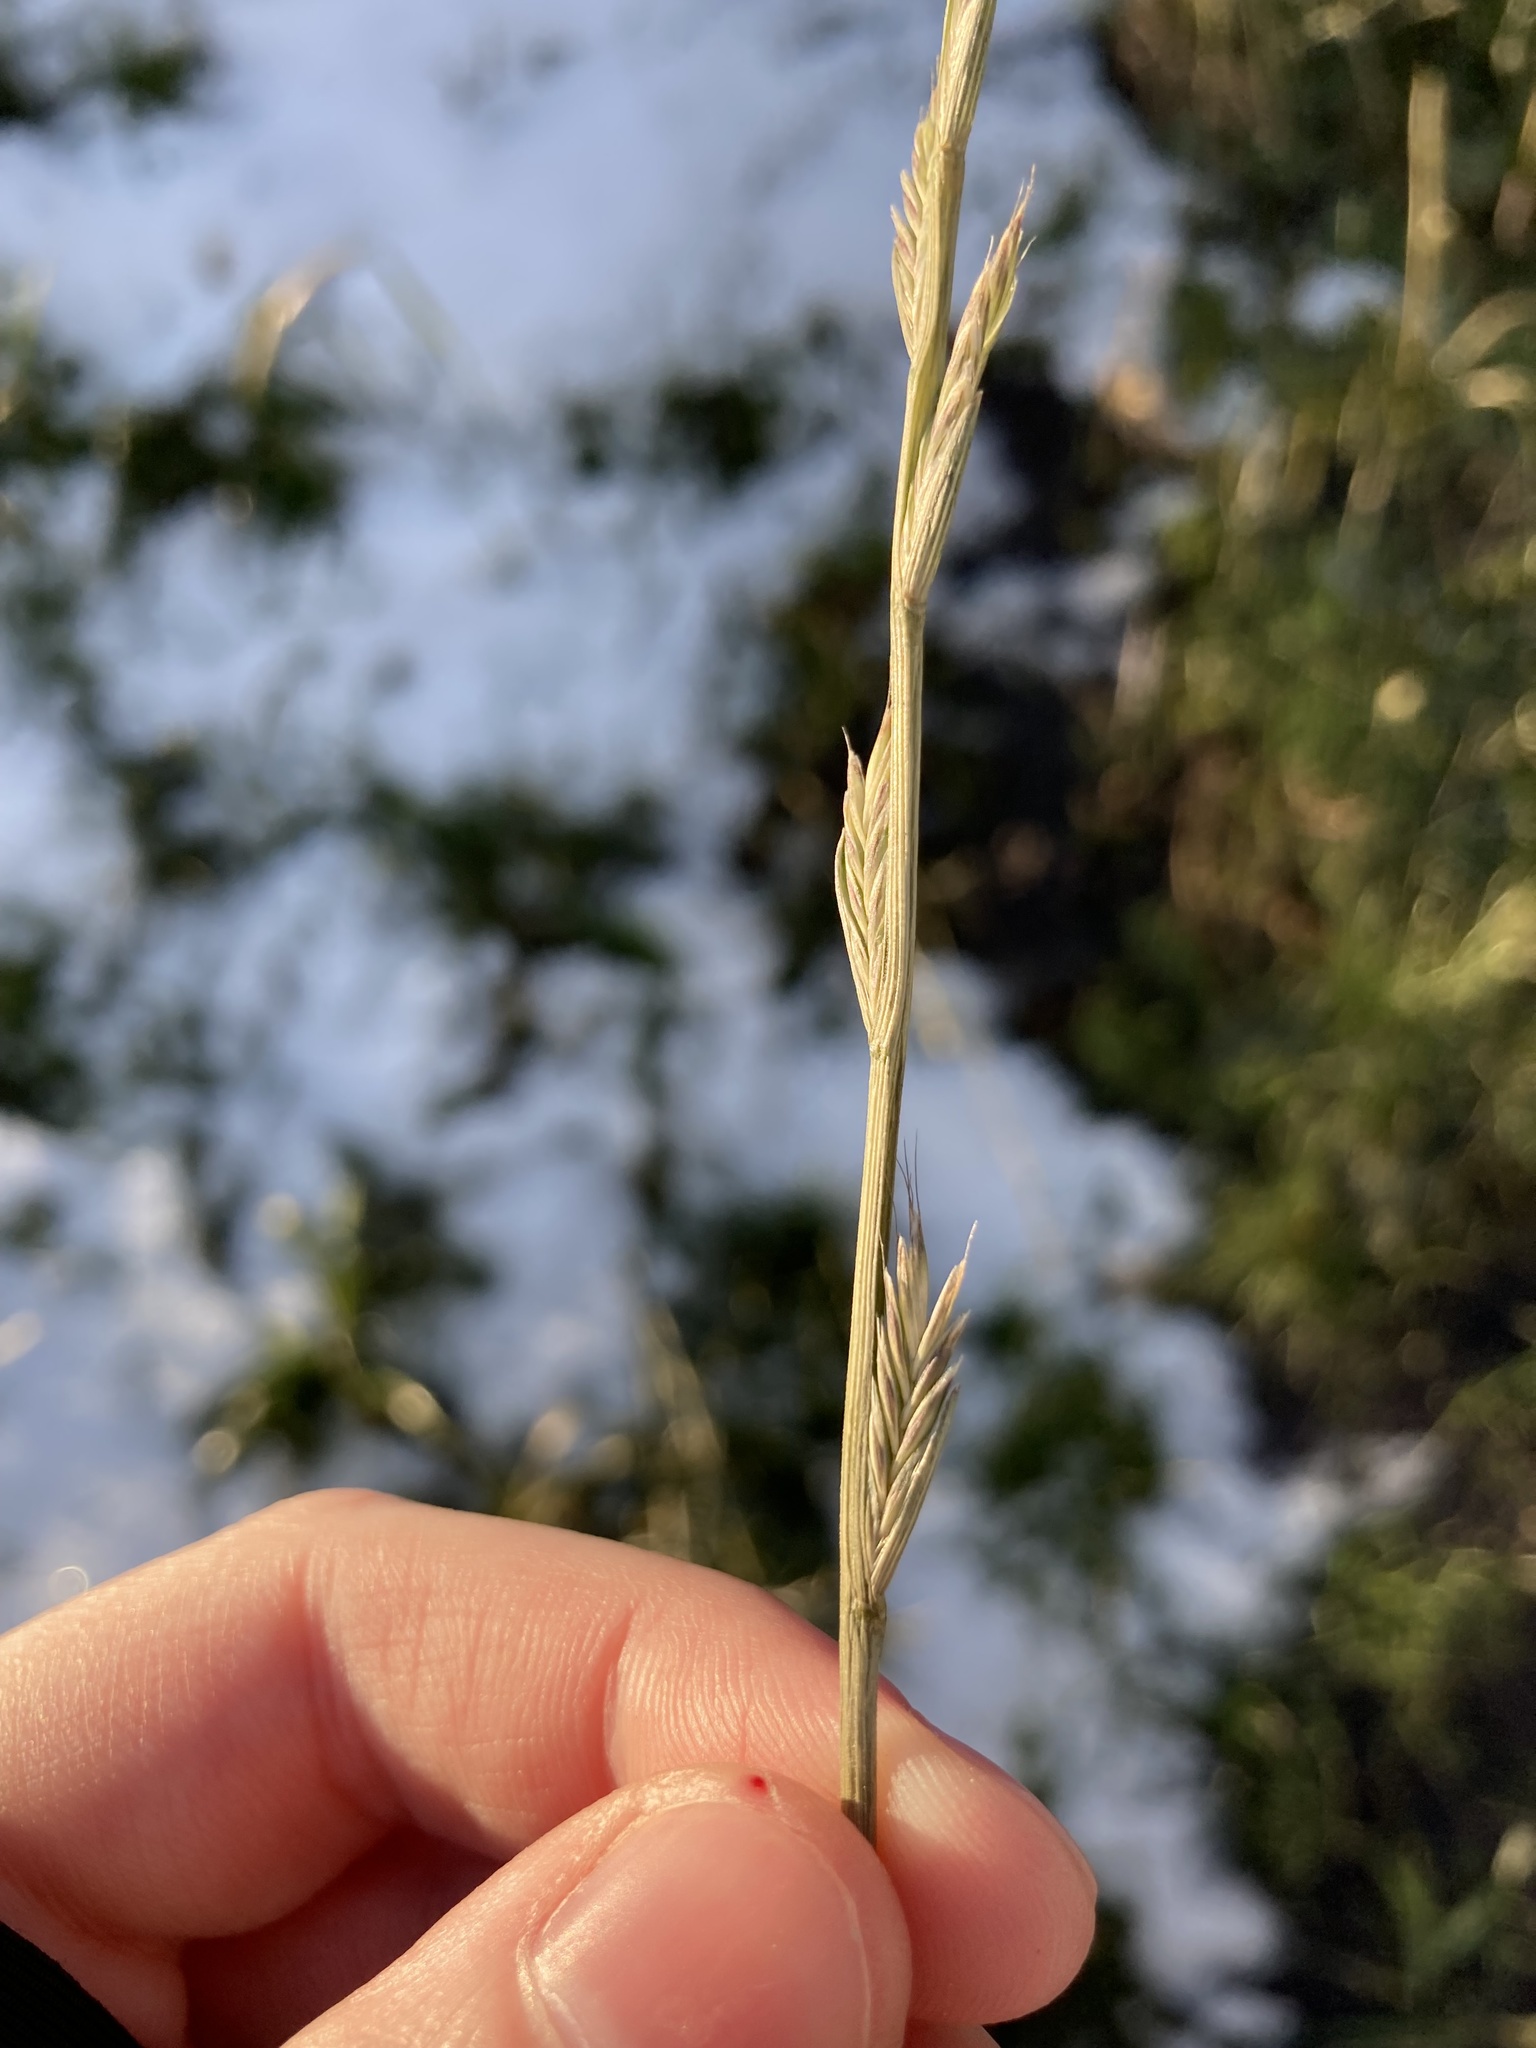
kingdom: Plantae
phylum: Tracheophyta
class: Liliopsida
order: Poales
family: Poaceae
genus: Lolium
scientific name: Lolium perenne
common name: Perennial ryegrass
